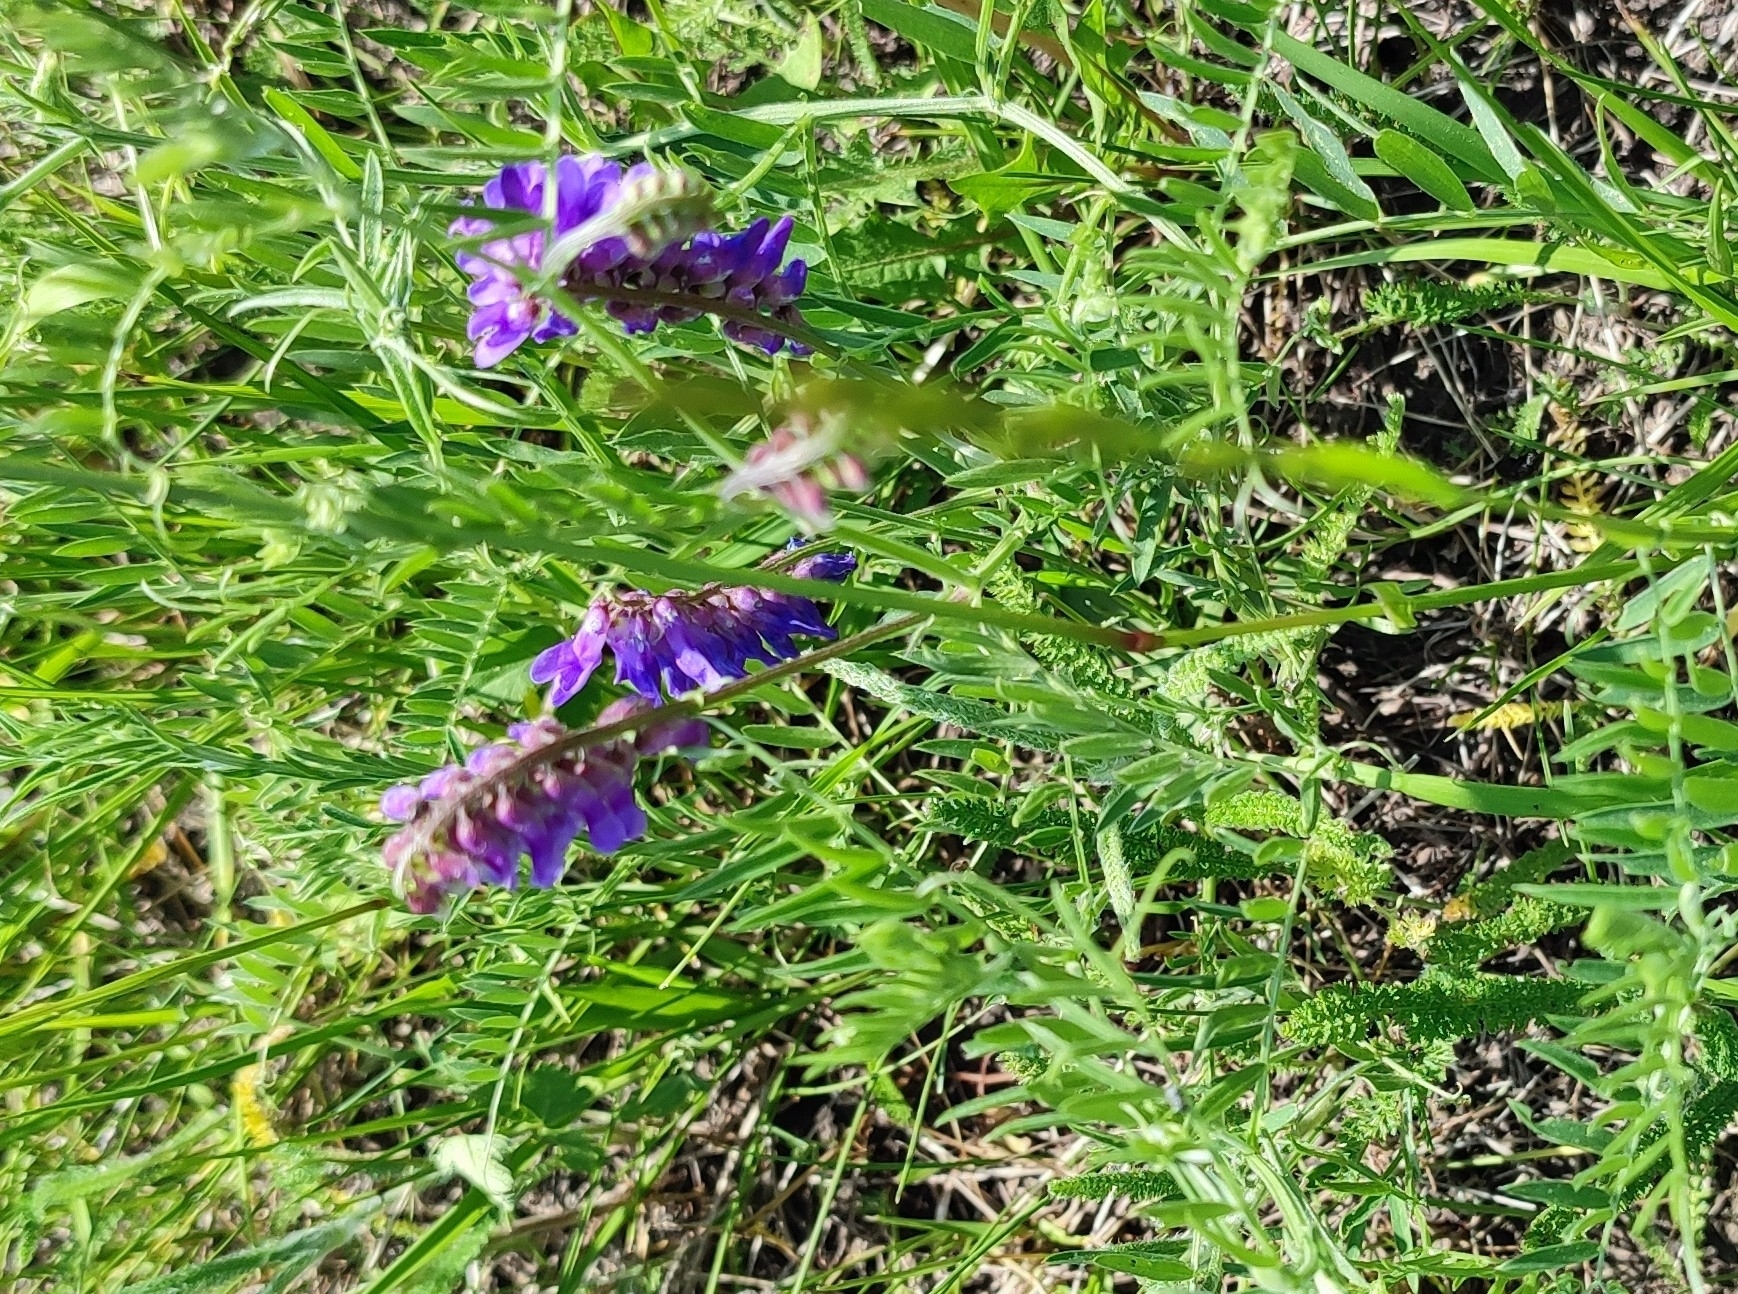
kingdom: Plantae
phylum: Tracheophyta
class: Magnoliopsida
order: Fabales
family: Fabaceae
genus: Vicia
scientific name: Vicia cracca
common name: Bird vetch
